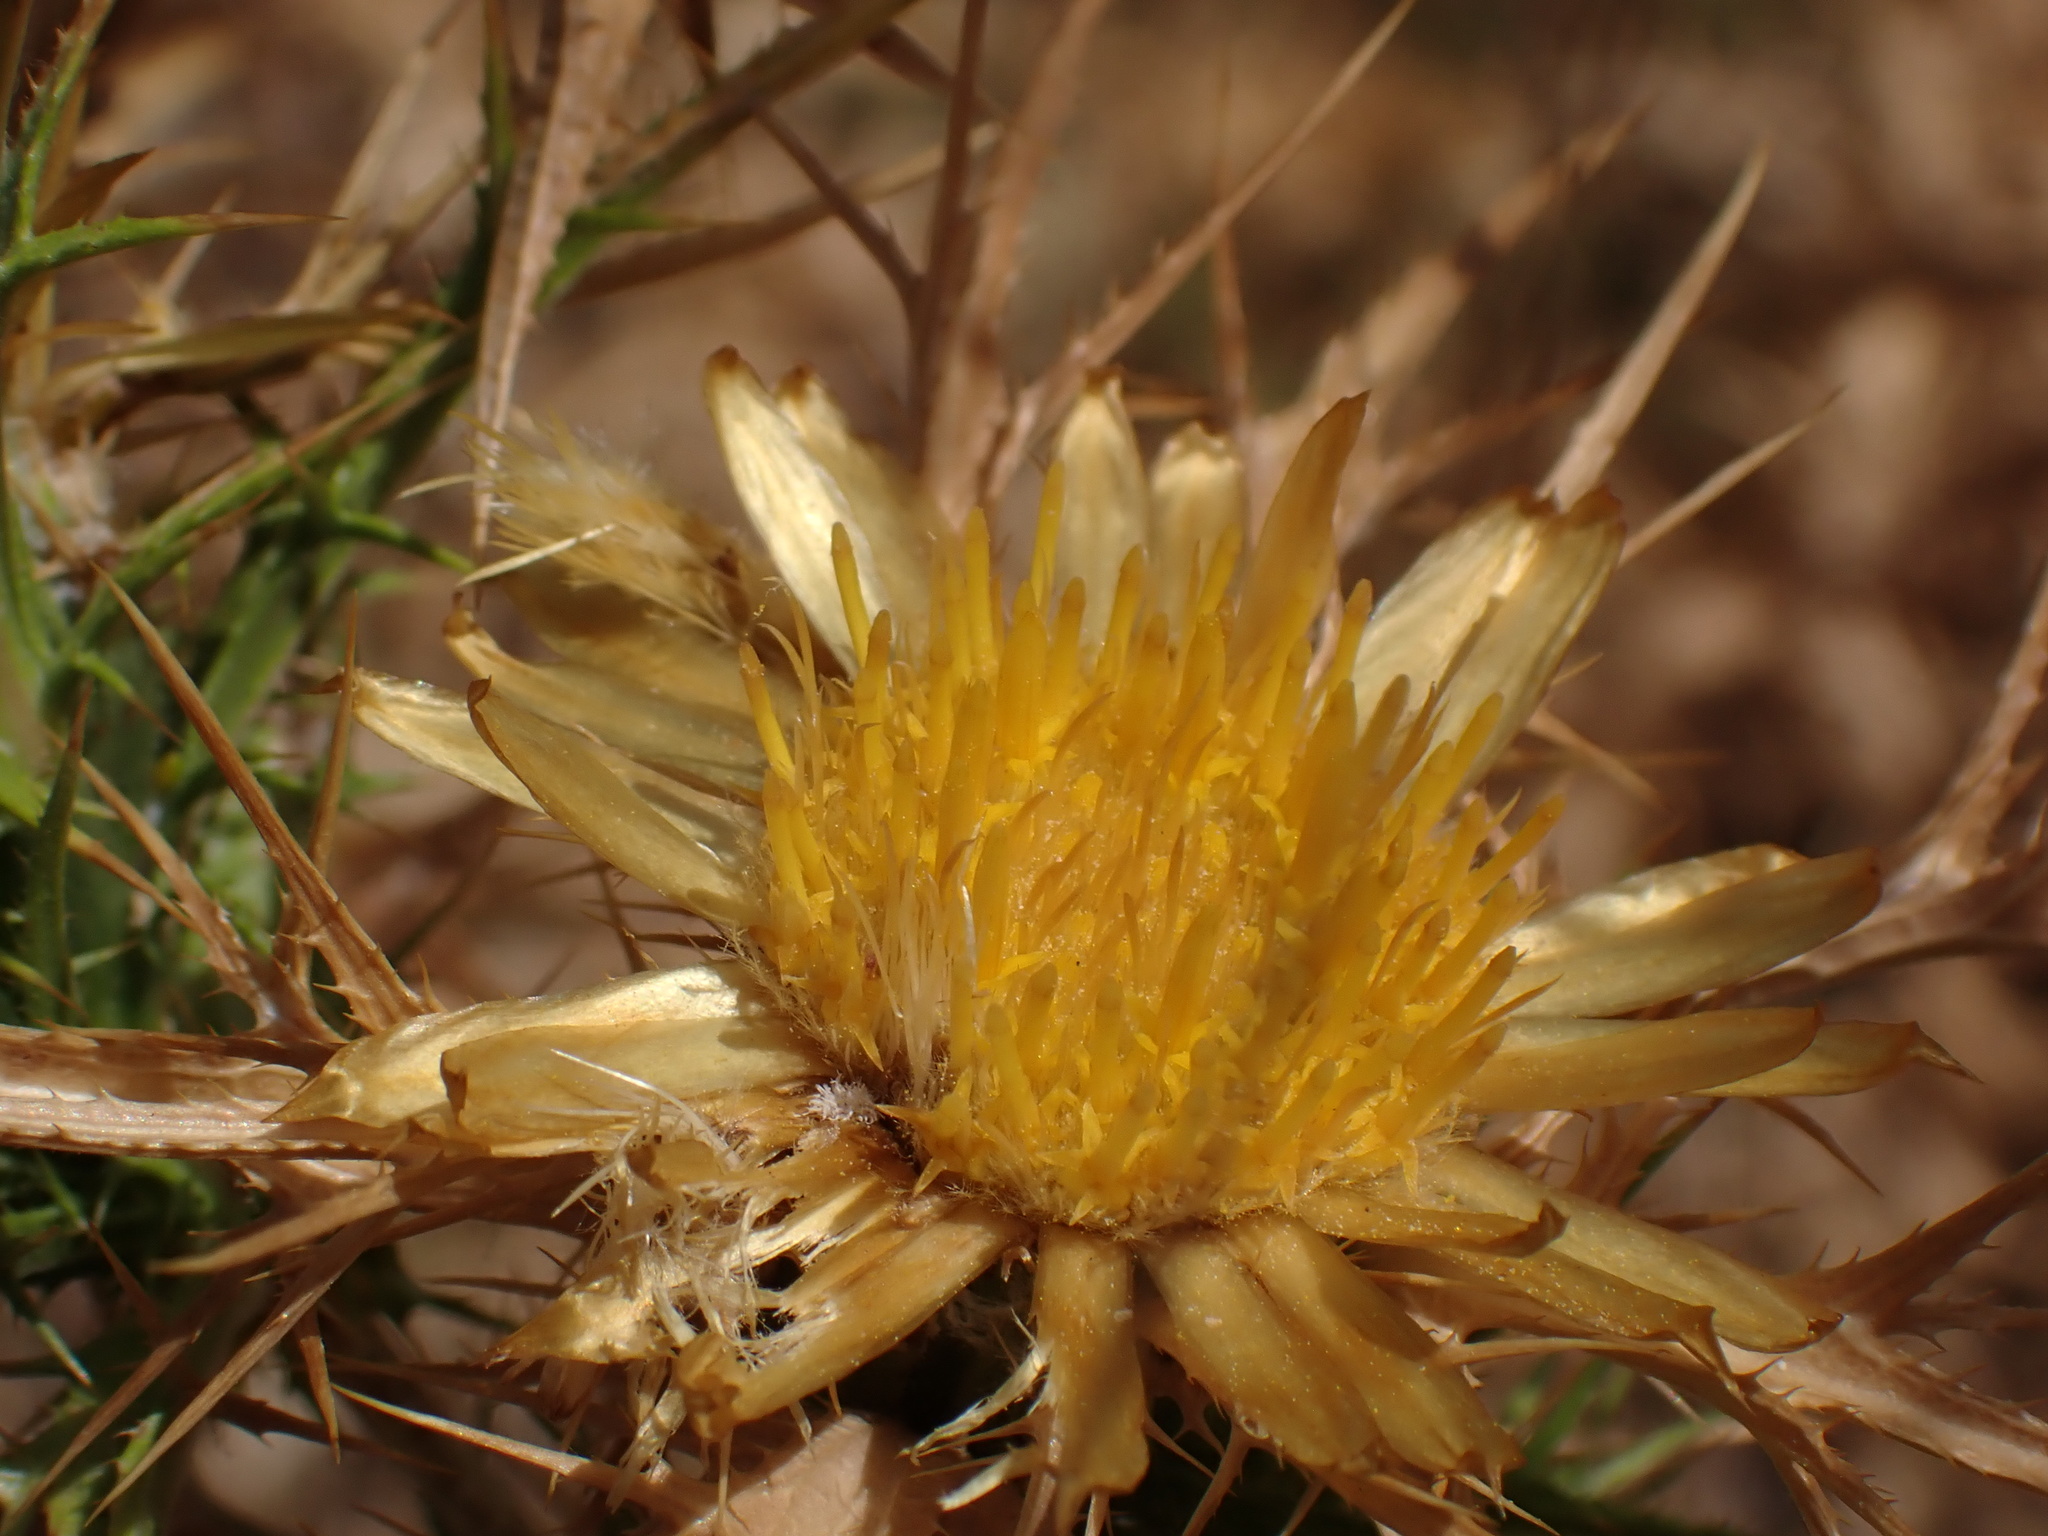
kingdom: Plantae
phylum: Tracheophyta
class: Magnoliopsida
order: Asterales
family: Asteraceae
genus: Carlina
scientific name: Carlina corymbosa
